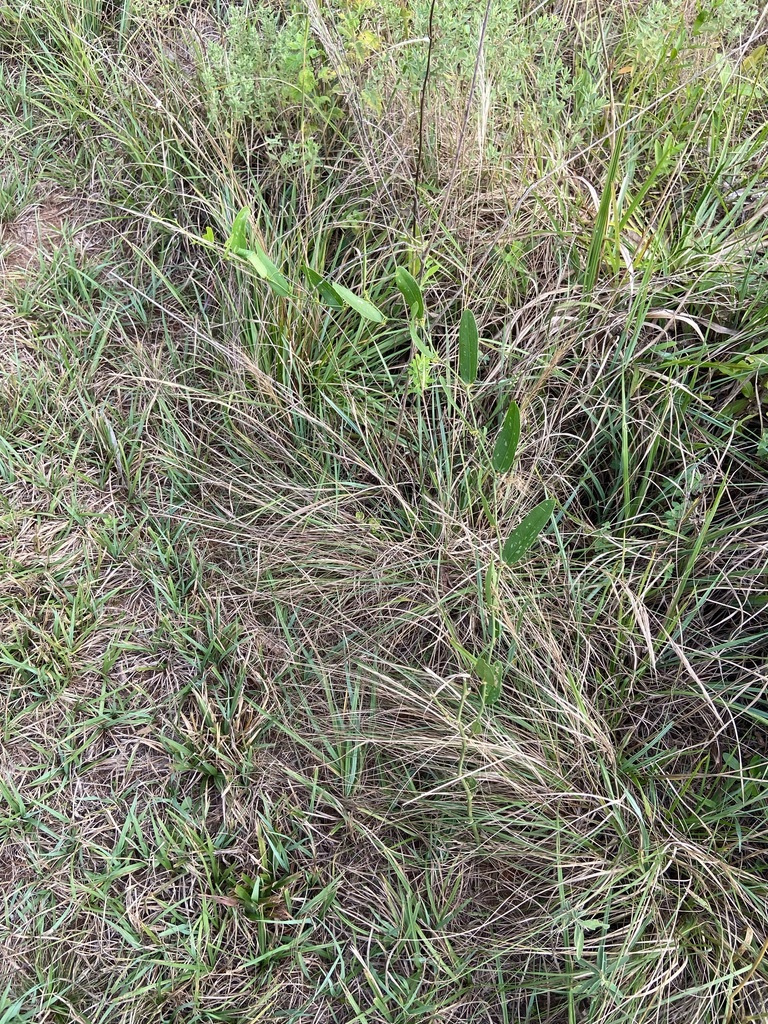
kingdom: Plantae
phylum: Tracheophyta
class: Liliopsida
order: Liliales
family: Smilacaceae
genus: Smilax
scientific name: Smilax campestris
